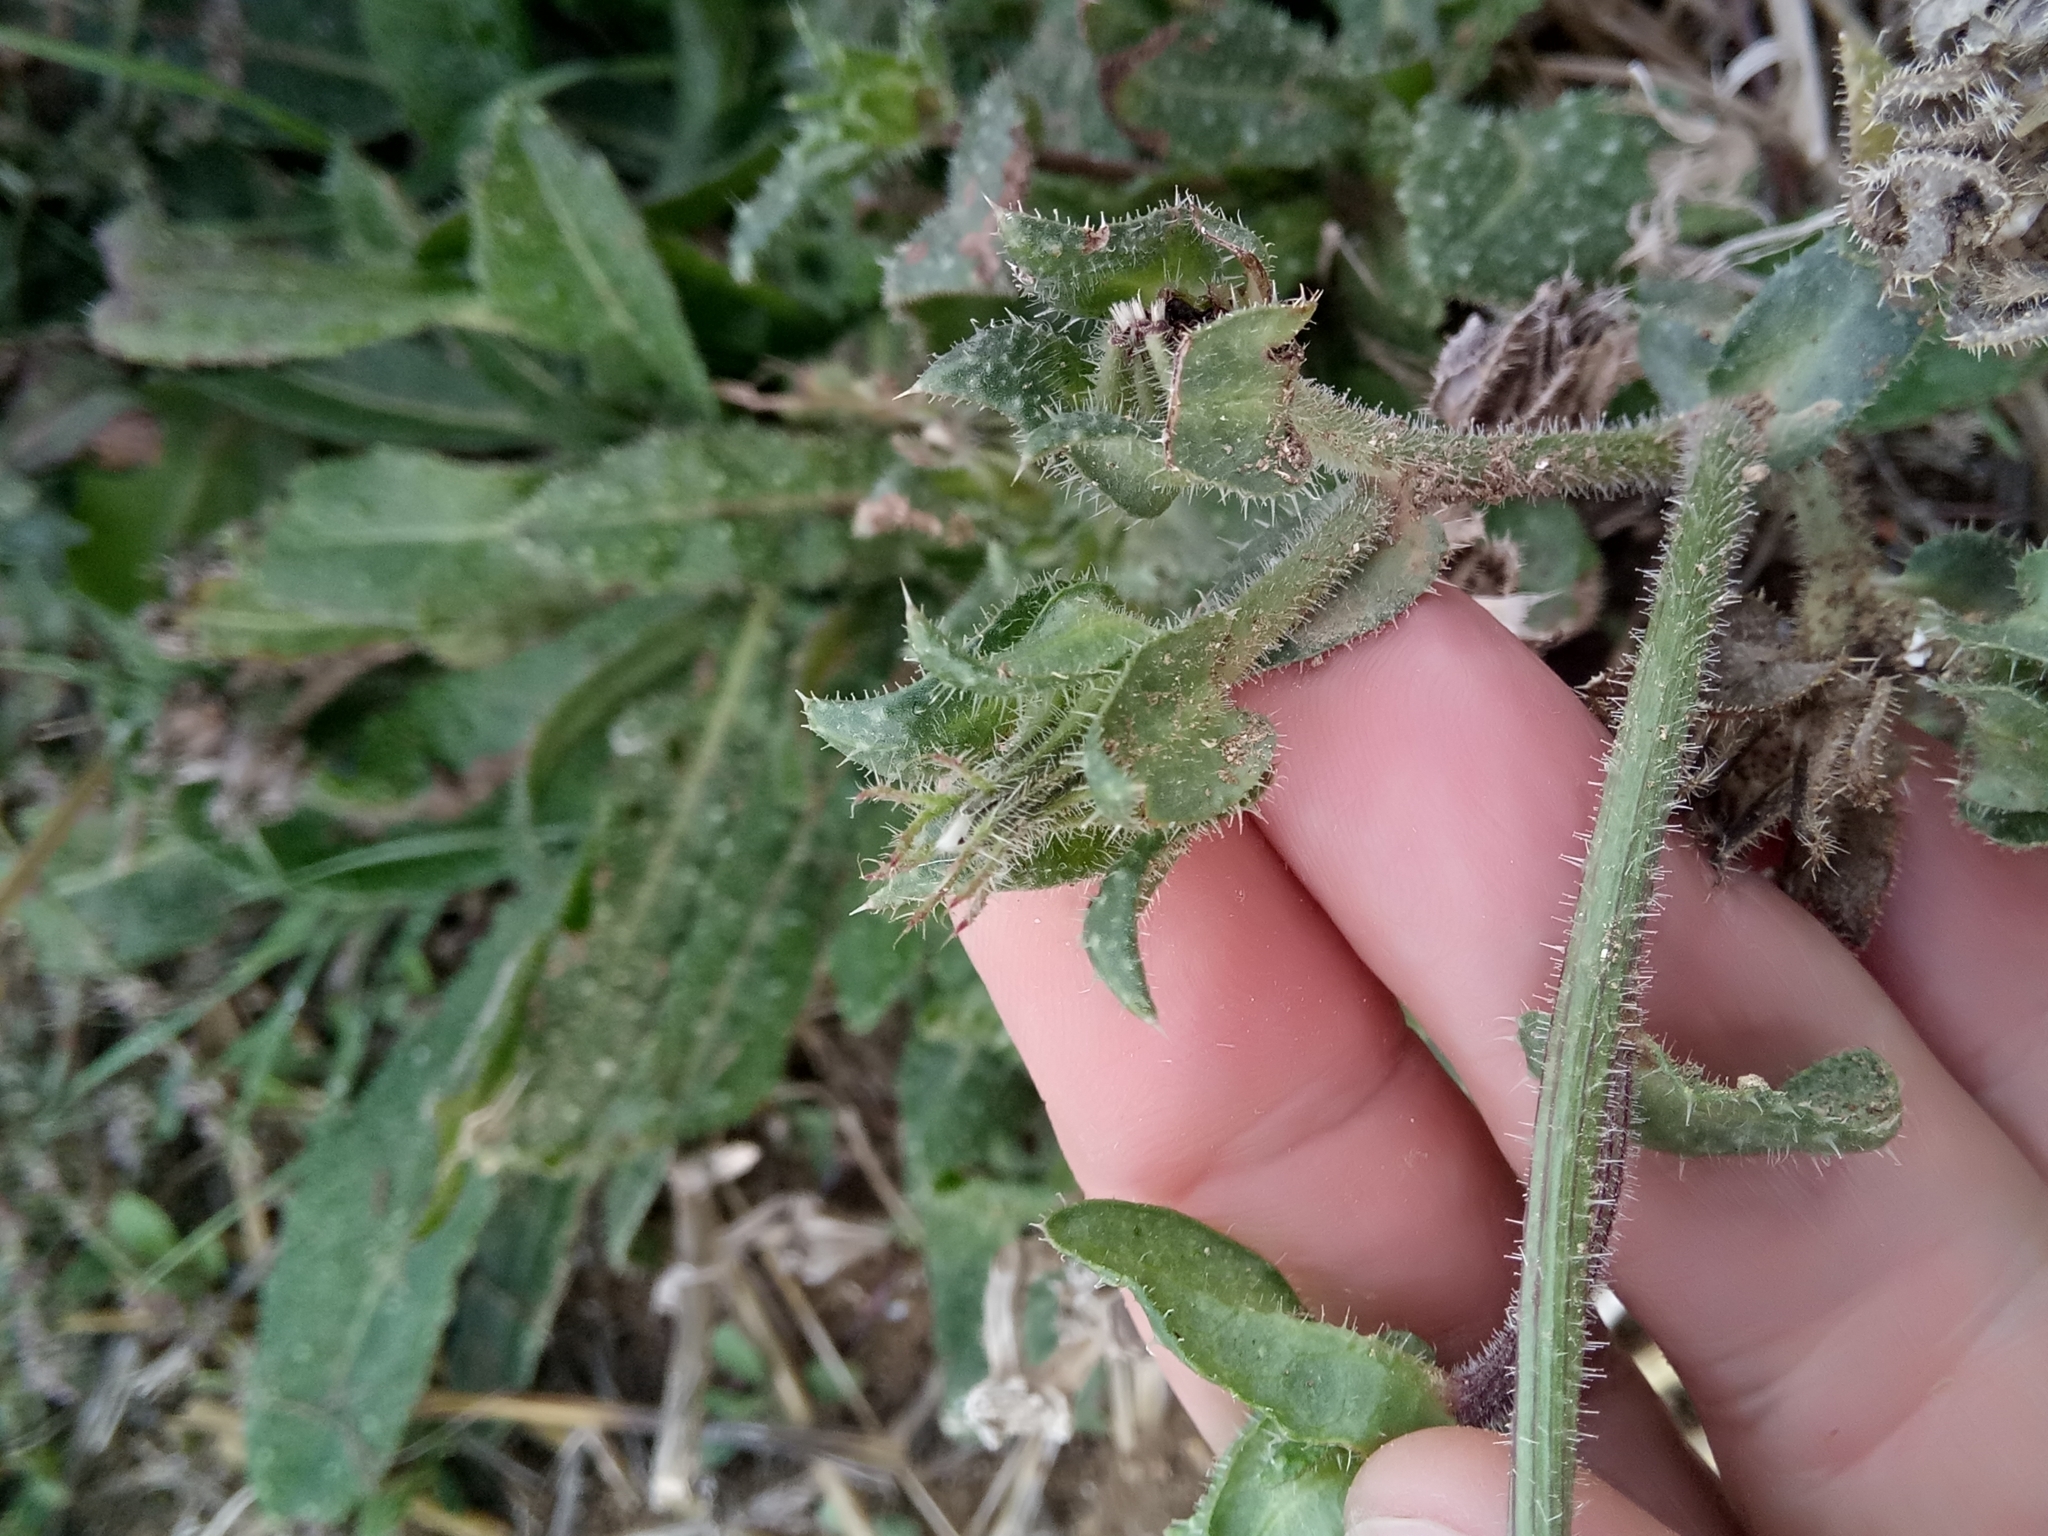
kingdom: Plantae
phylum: Tracheophyta
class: Magnoliopsida
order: Asterales
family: Asteraceae
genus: Helminthotheca
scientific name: Helminthotheca echioides
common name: Ox-tongue
